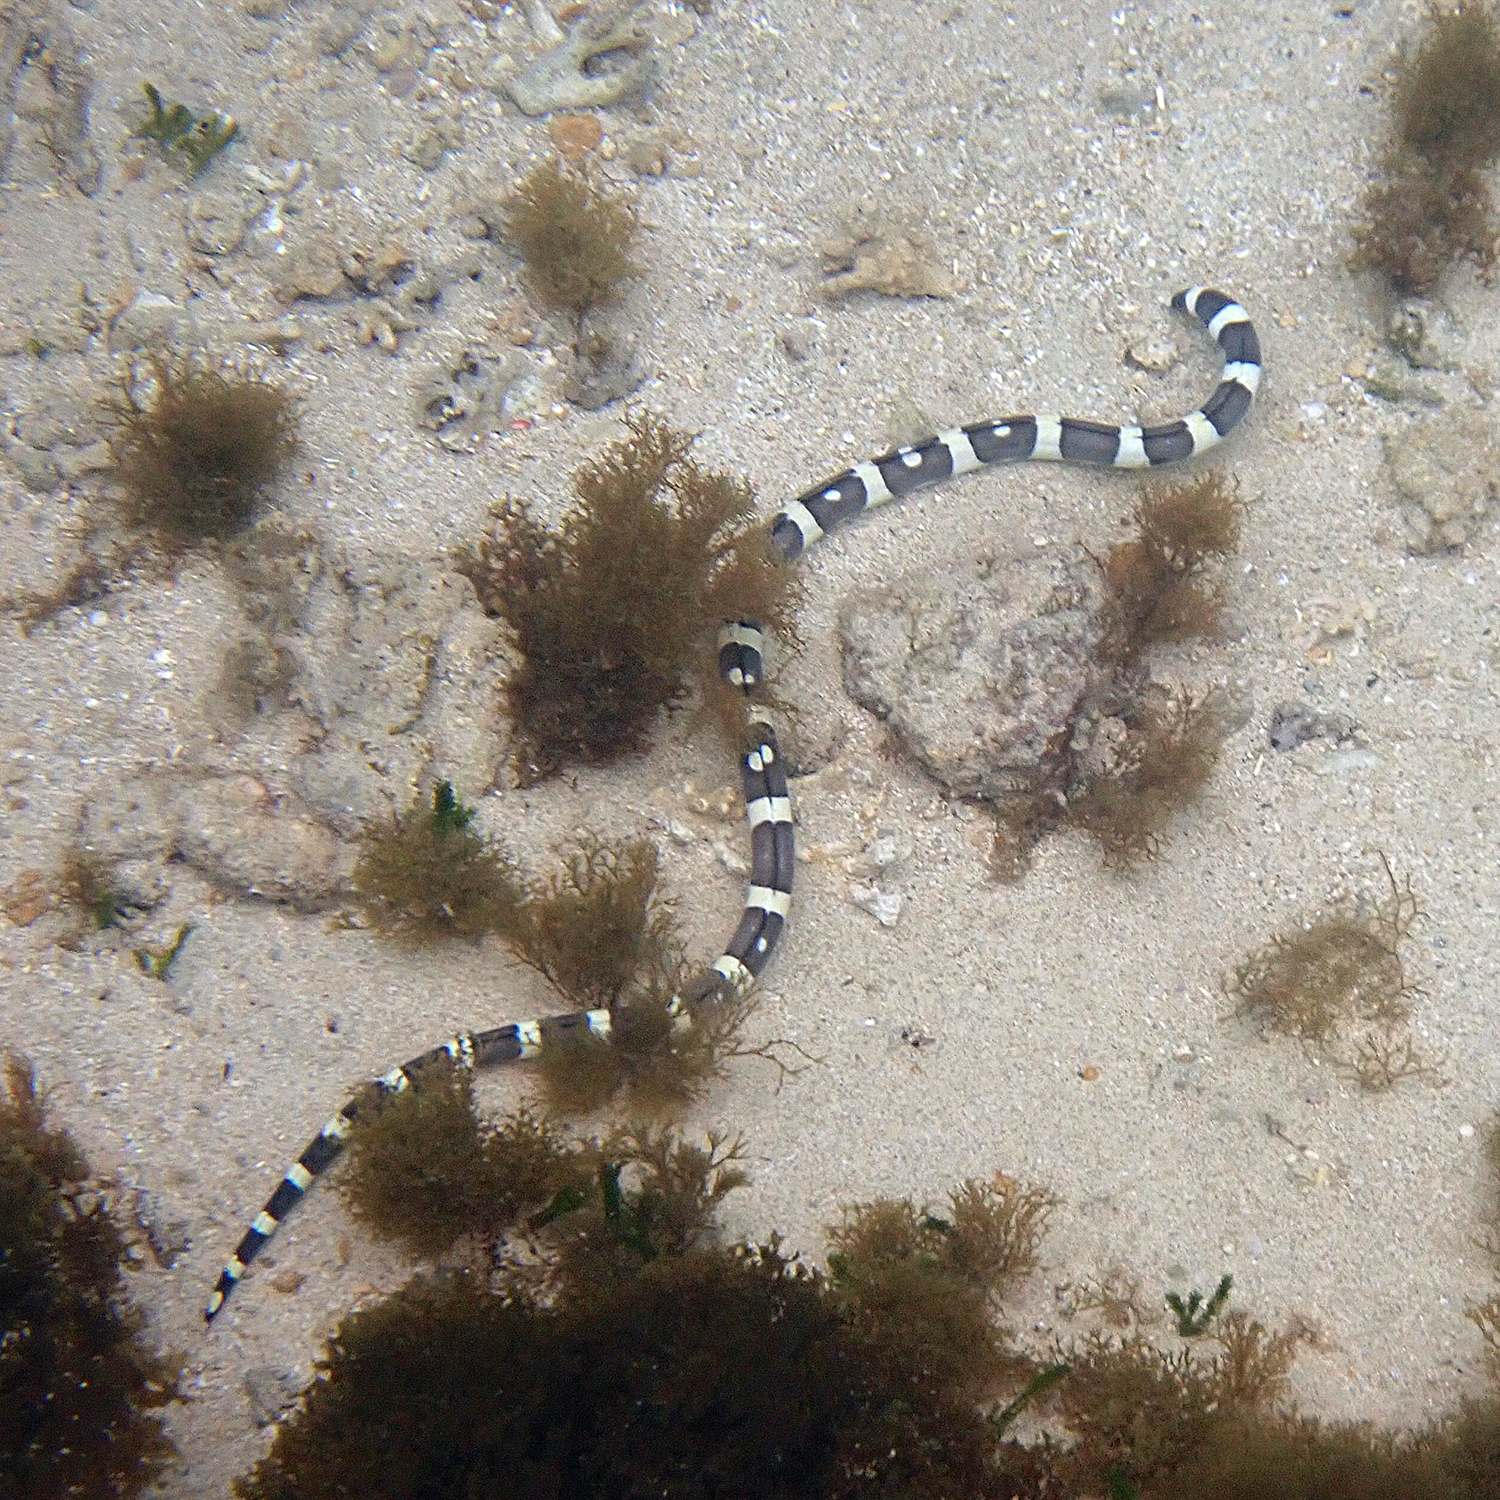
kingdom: Animalia
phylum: Chordata
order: Anguilliformes
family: Ophichthidae
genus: Leiuranus
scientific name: Leiuranus versicolor
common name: Convict snake eel
